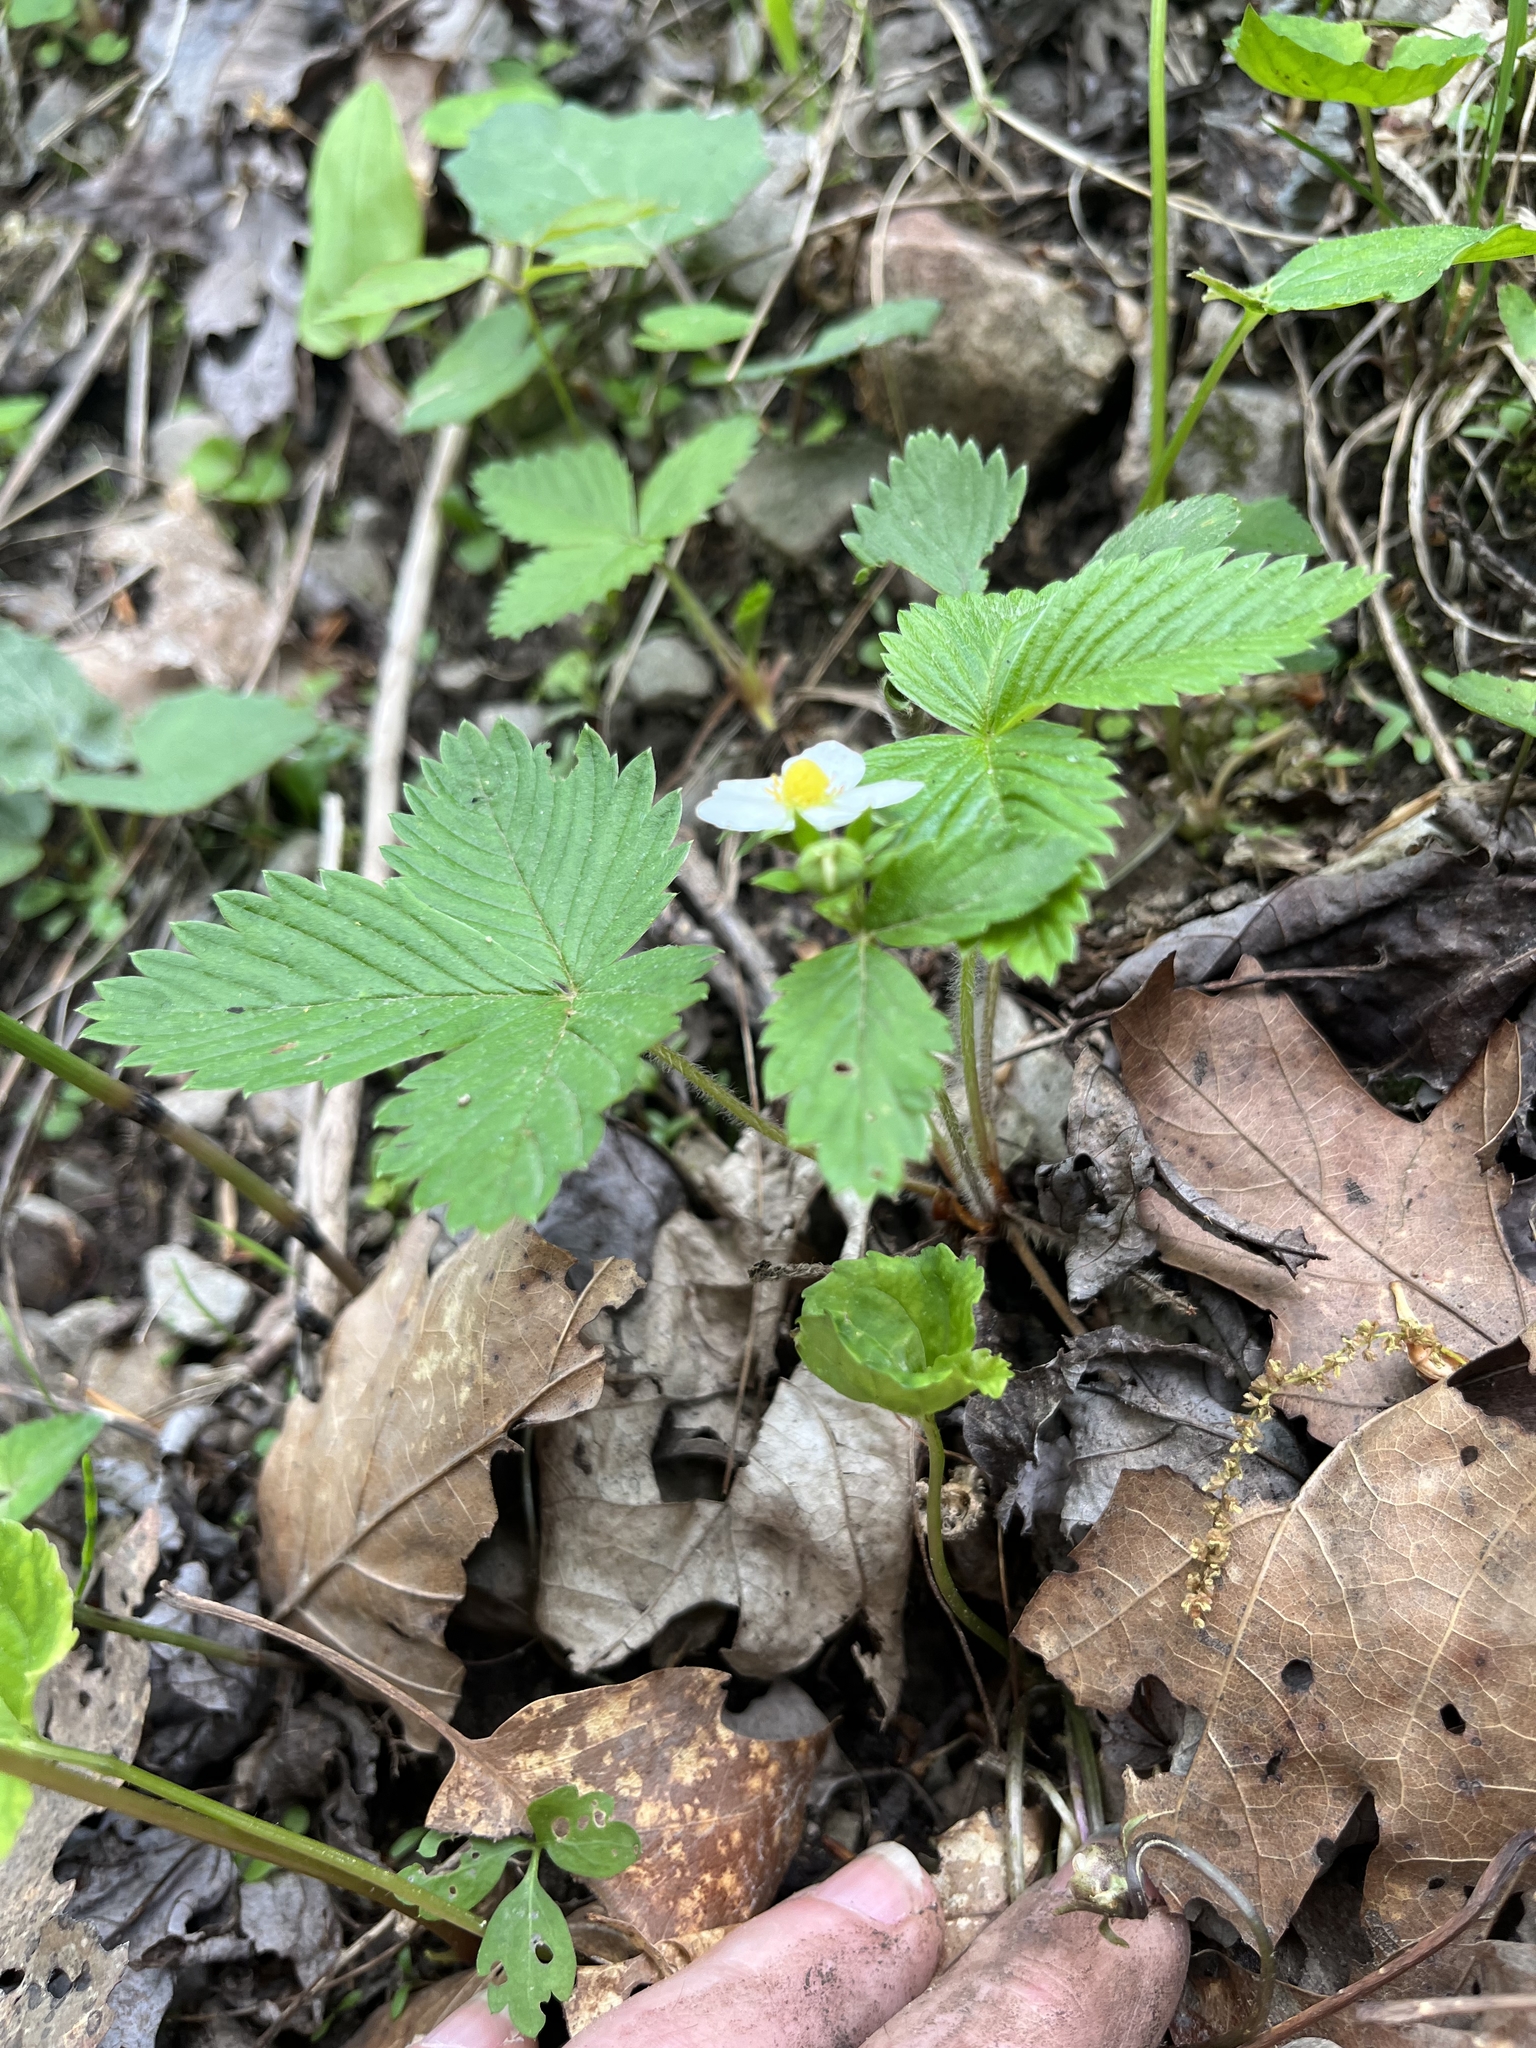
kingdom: Plantae
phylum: Tracheophyta
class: Magnoliopsida
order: Rosales
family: Rosaceae
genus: Fragaria
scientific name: Fragaria vesca
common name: Wild strawberry
